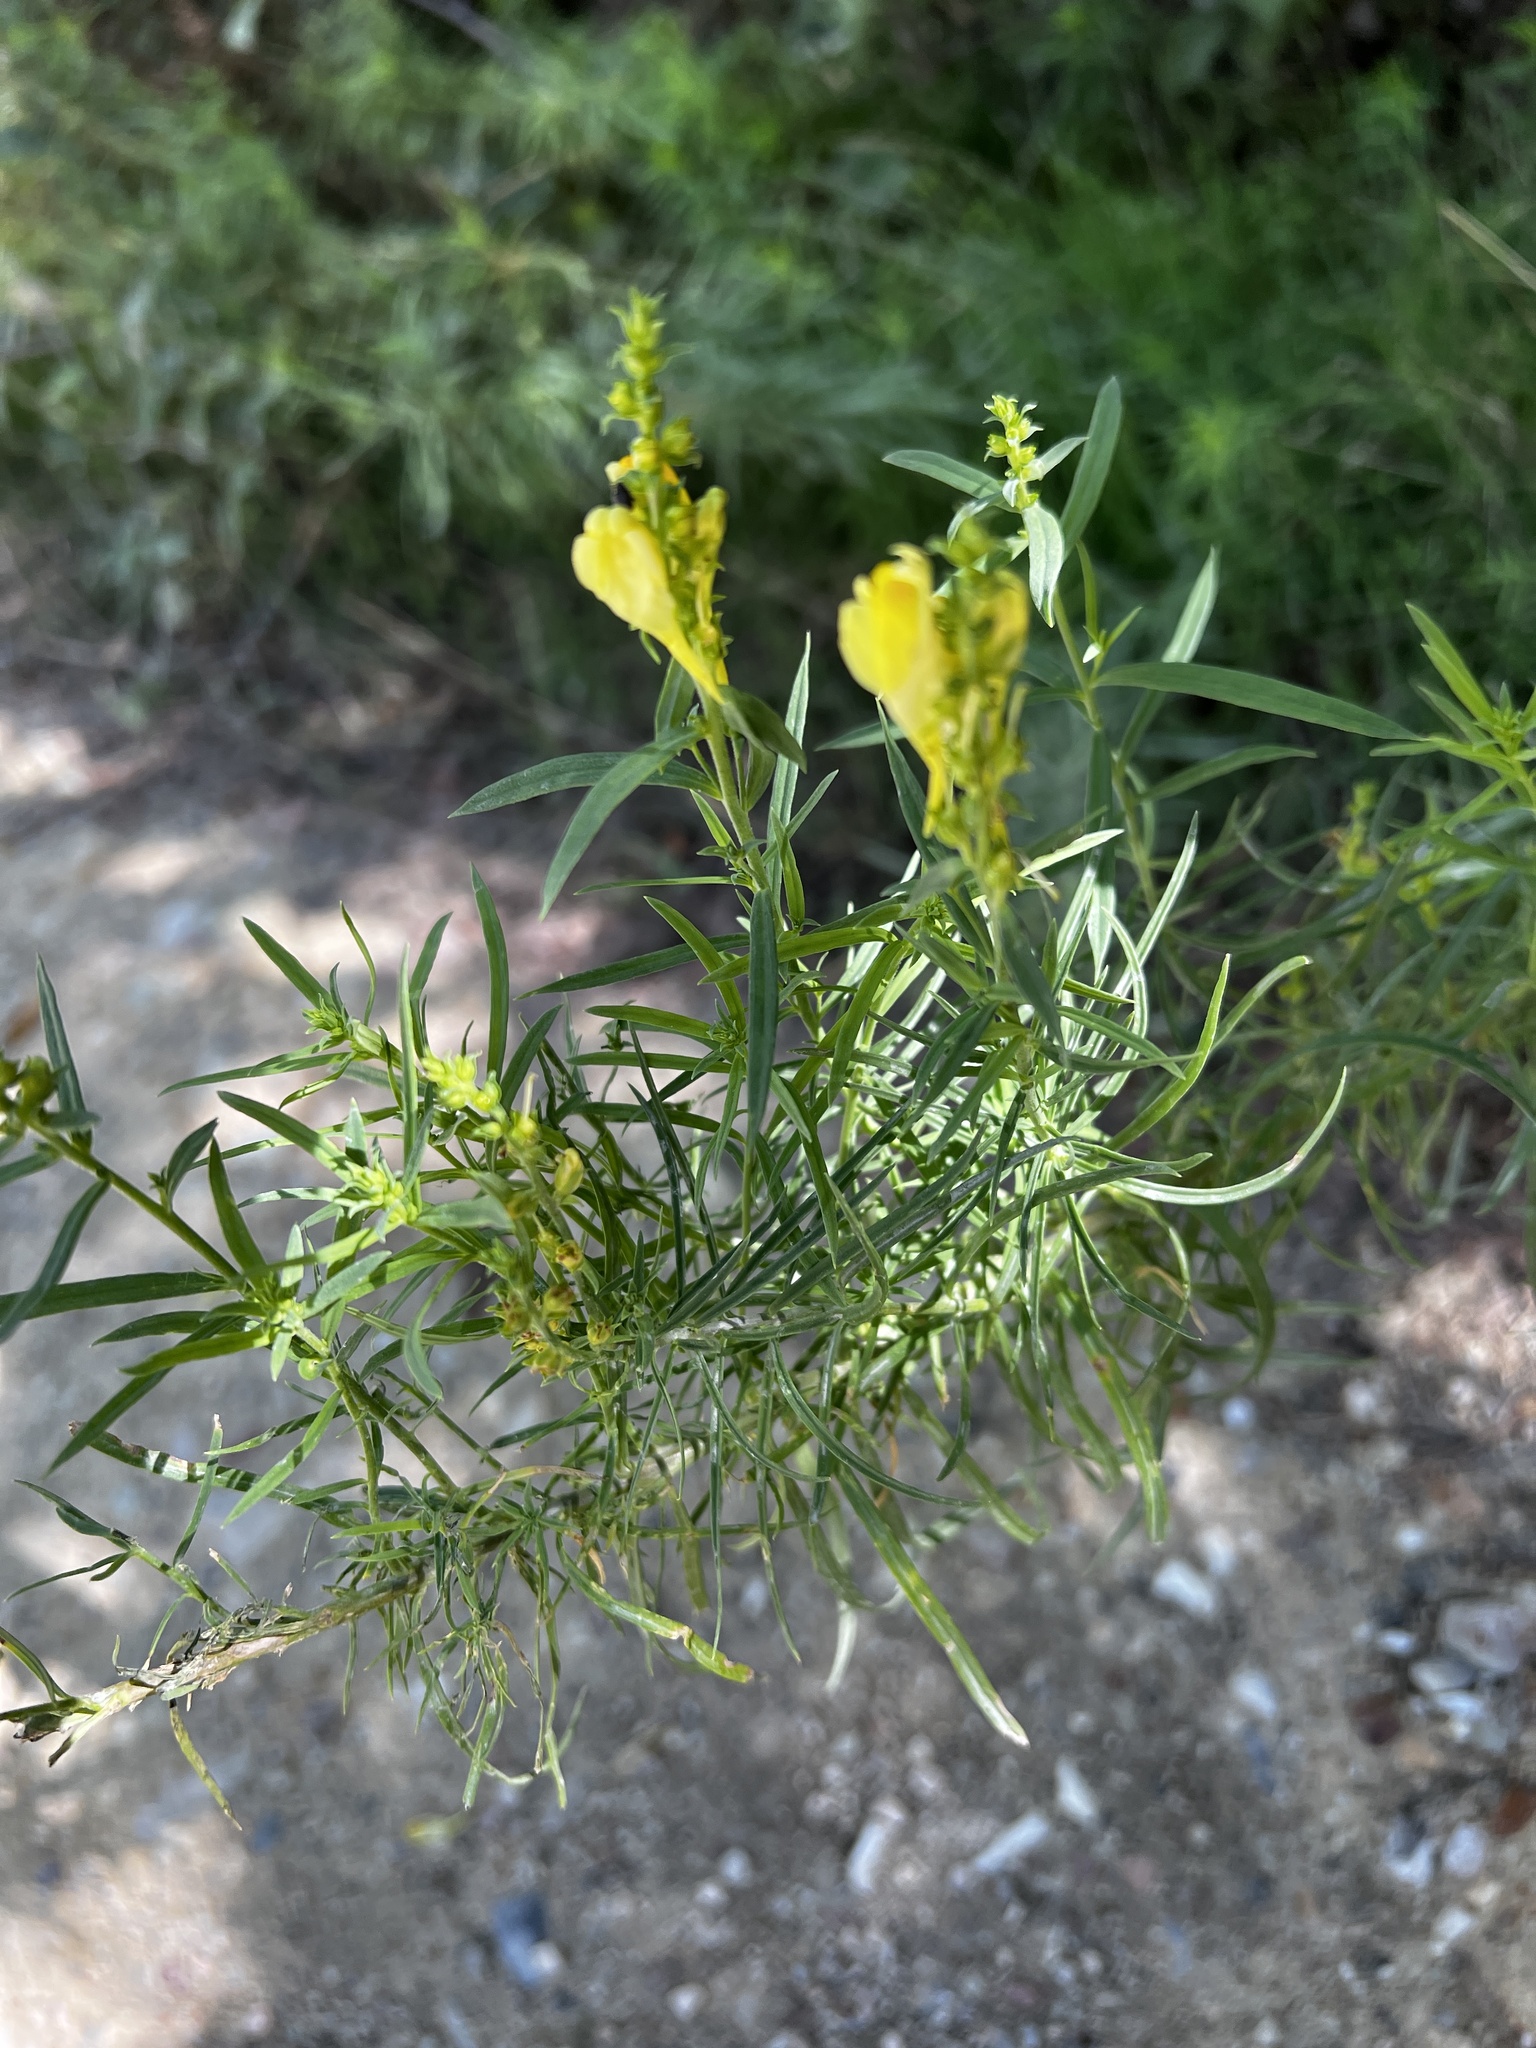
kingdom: Plantae
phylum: Tracheophyta
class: Magnoliopsida
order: Lamiales
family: Plantaginaceae
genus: Linaria
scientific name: Linaria vulgaris
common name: Butter and eggs
